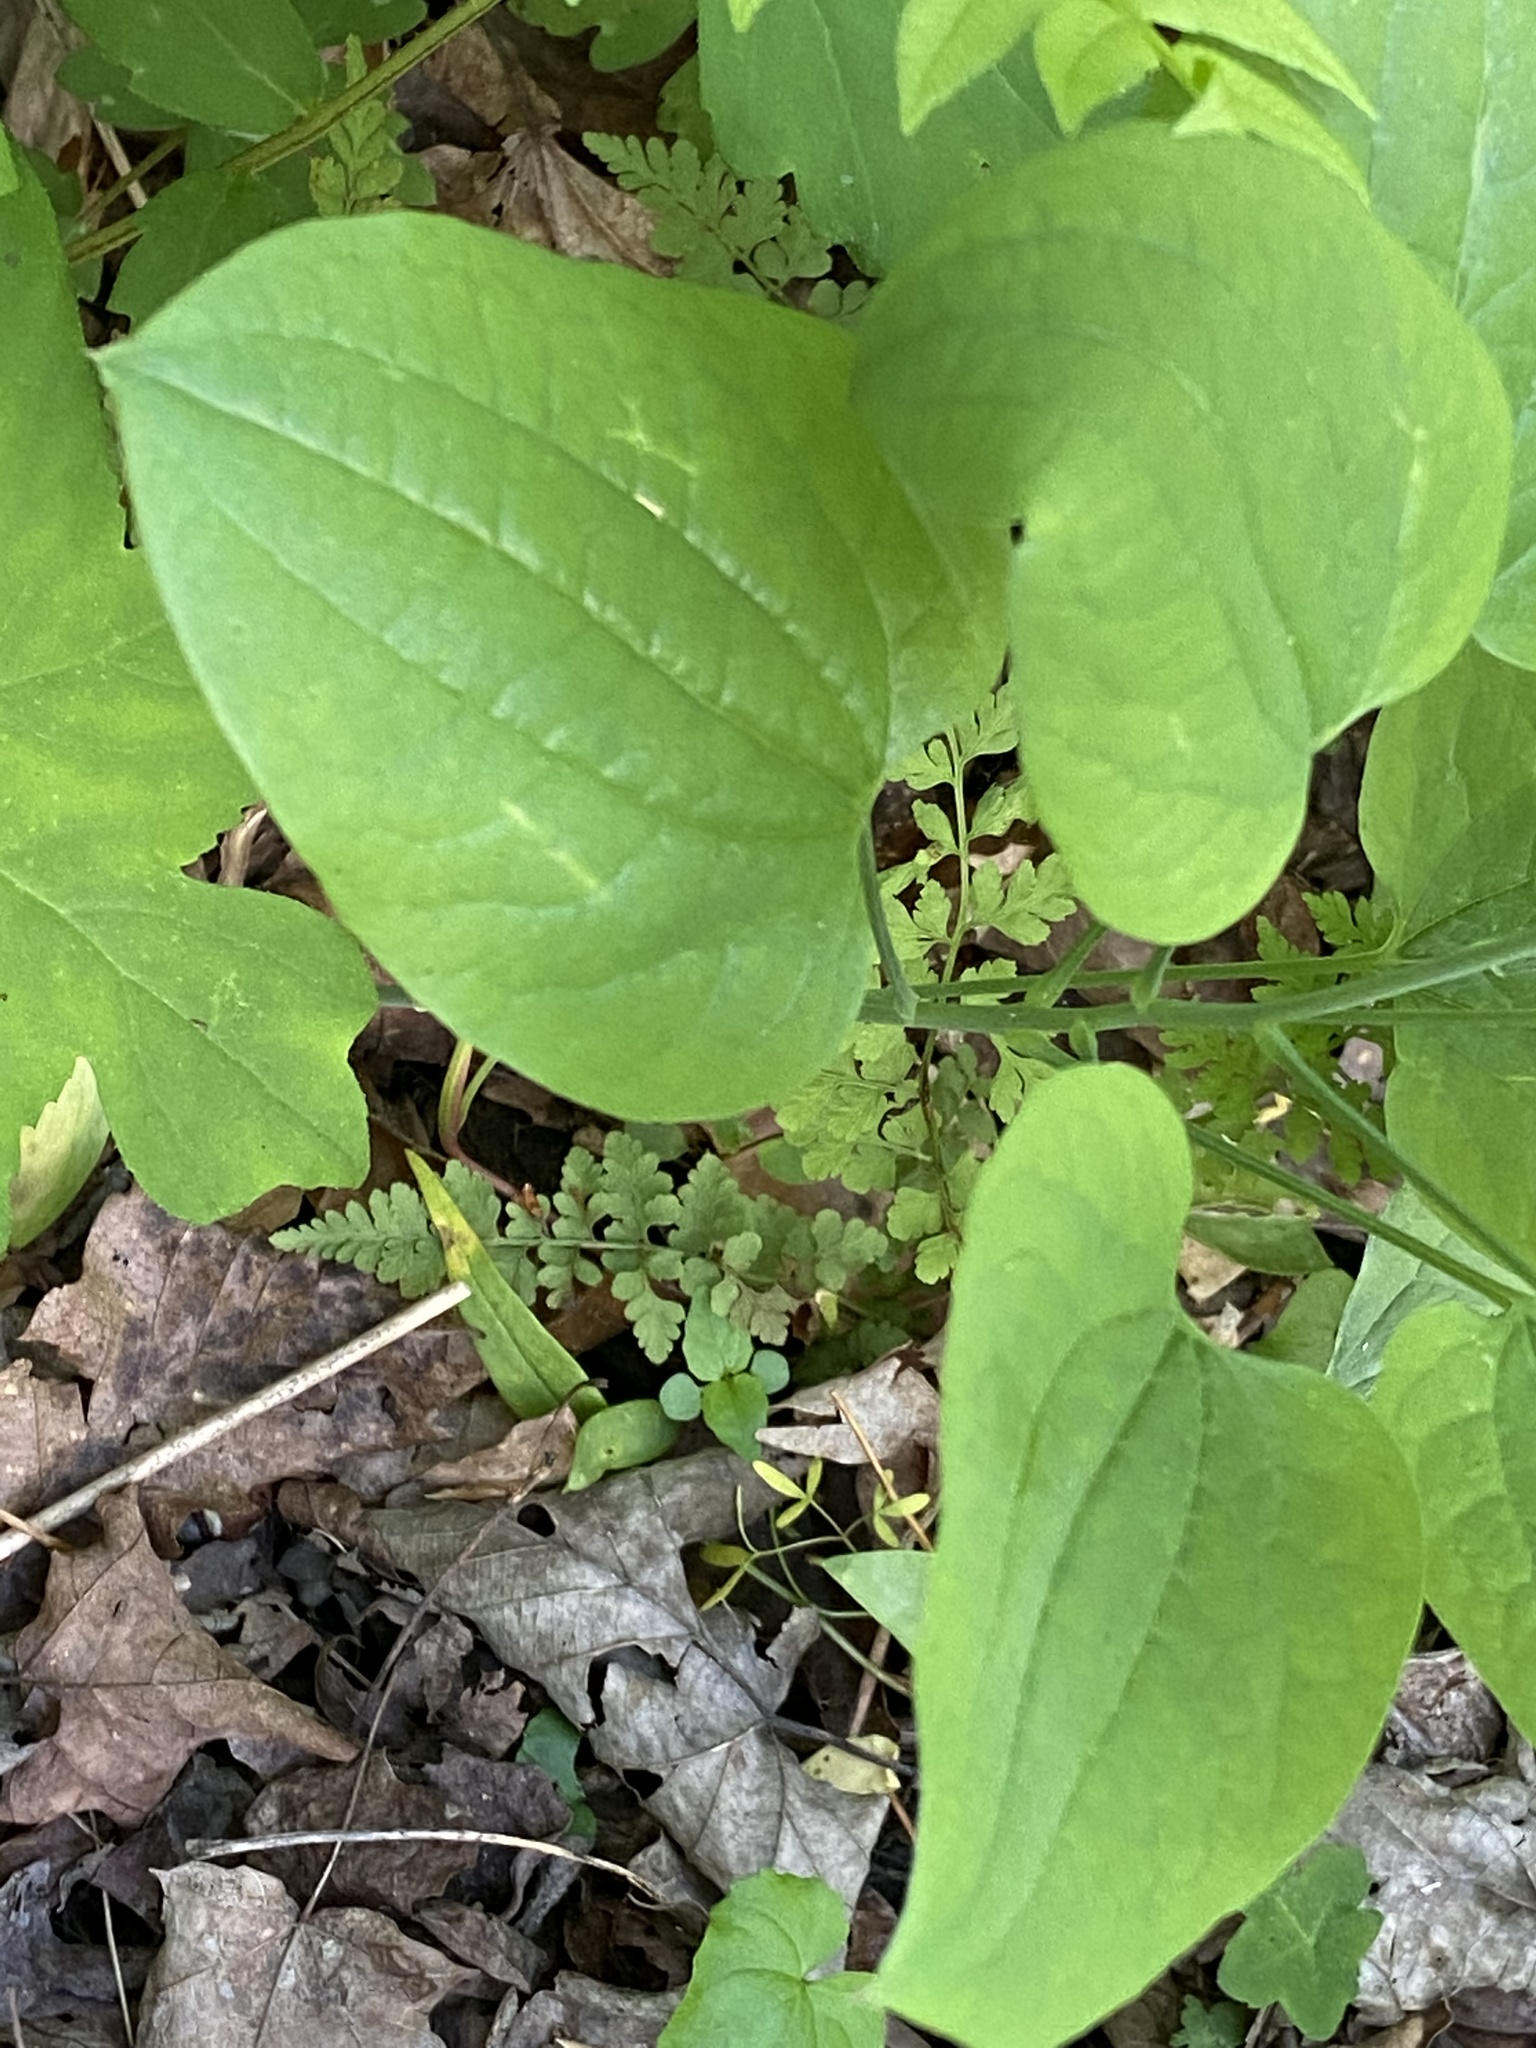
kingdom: Plantae
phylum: Tracheophyta
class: Liliopsida
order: Liliales
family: Smilacaceae
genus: Smilax
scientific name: Smilax herbacea
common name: Jacob's-ladder
